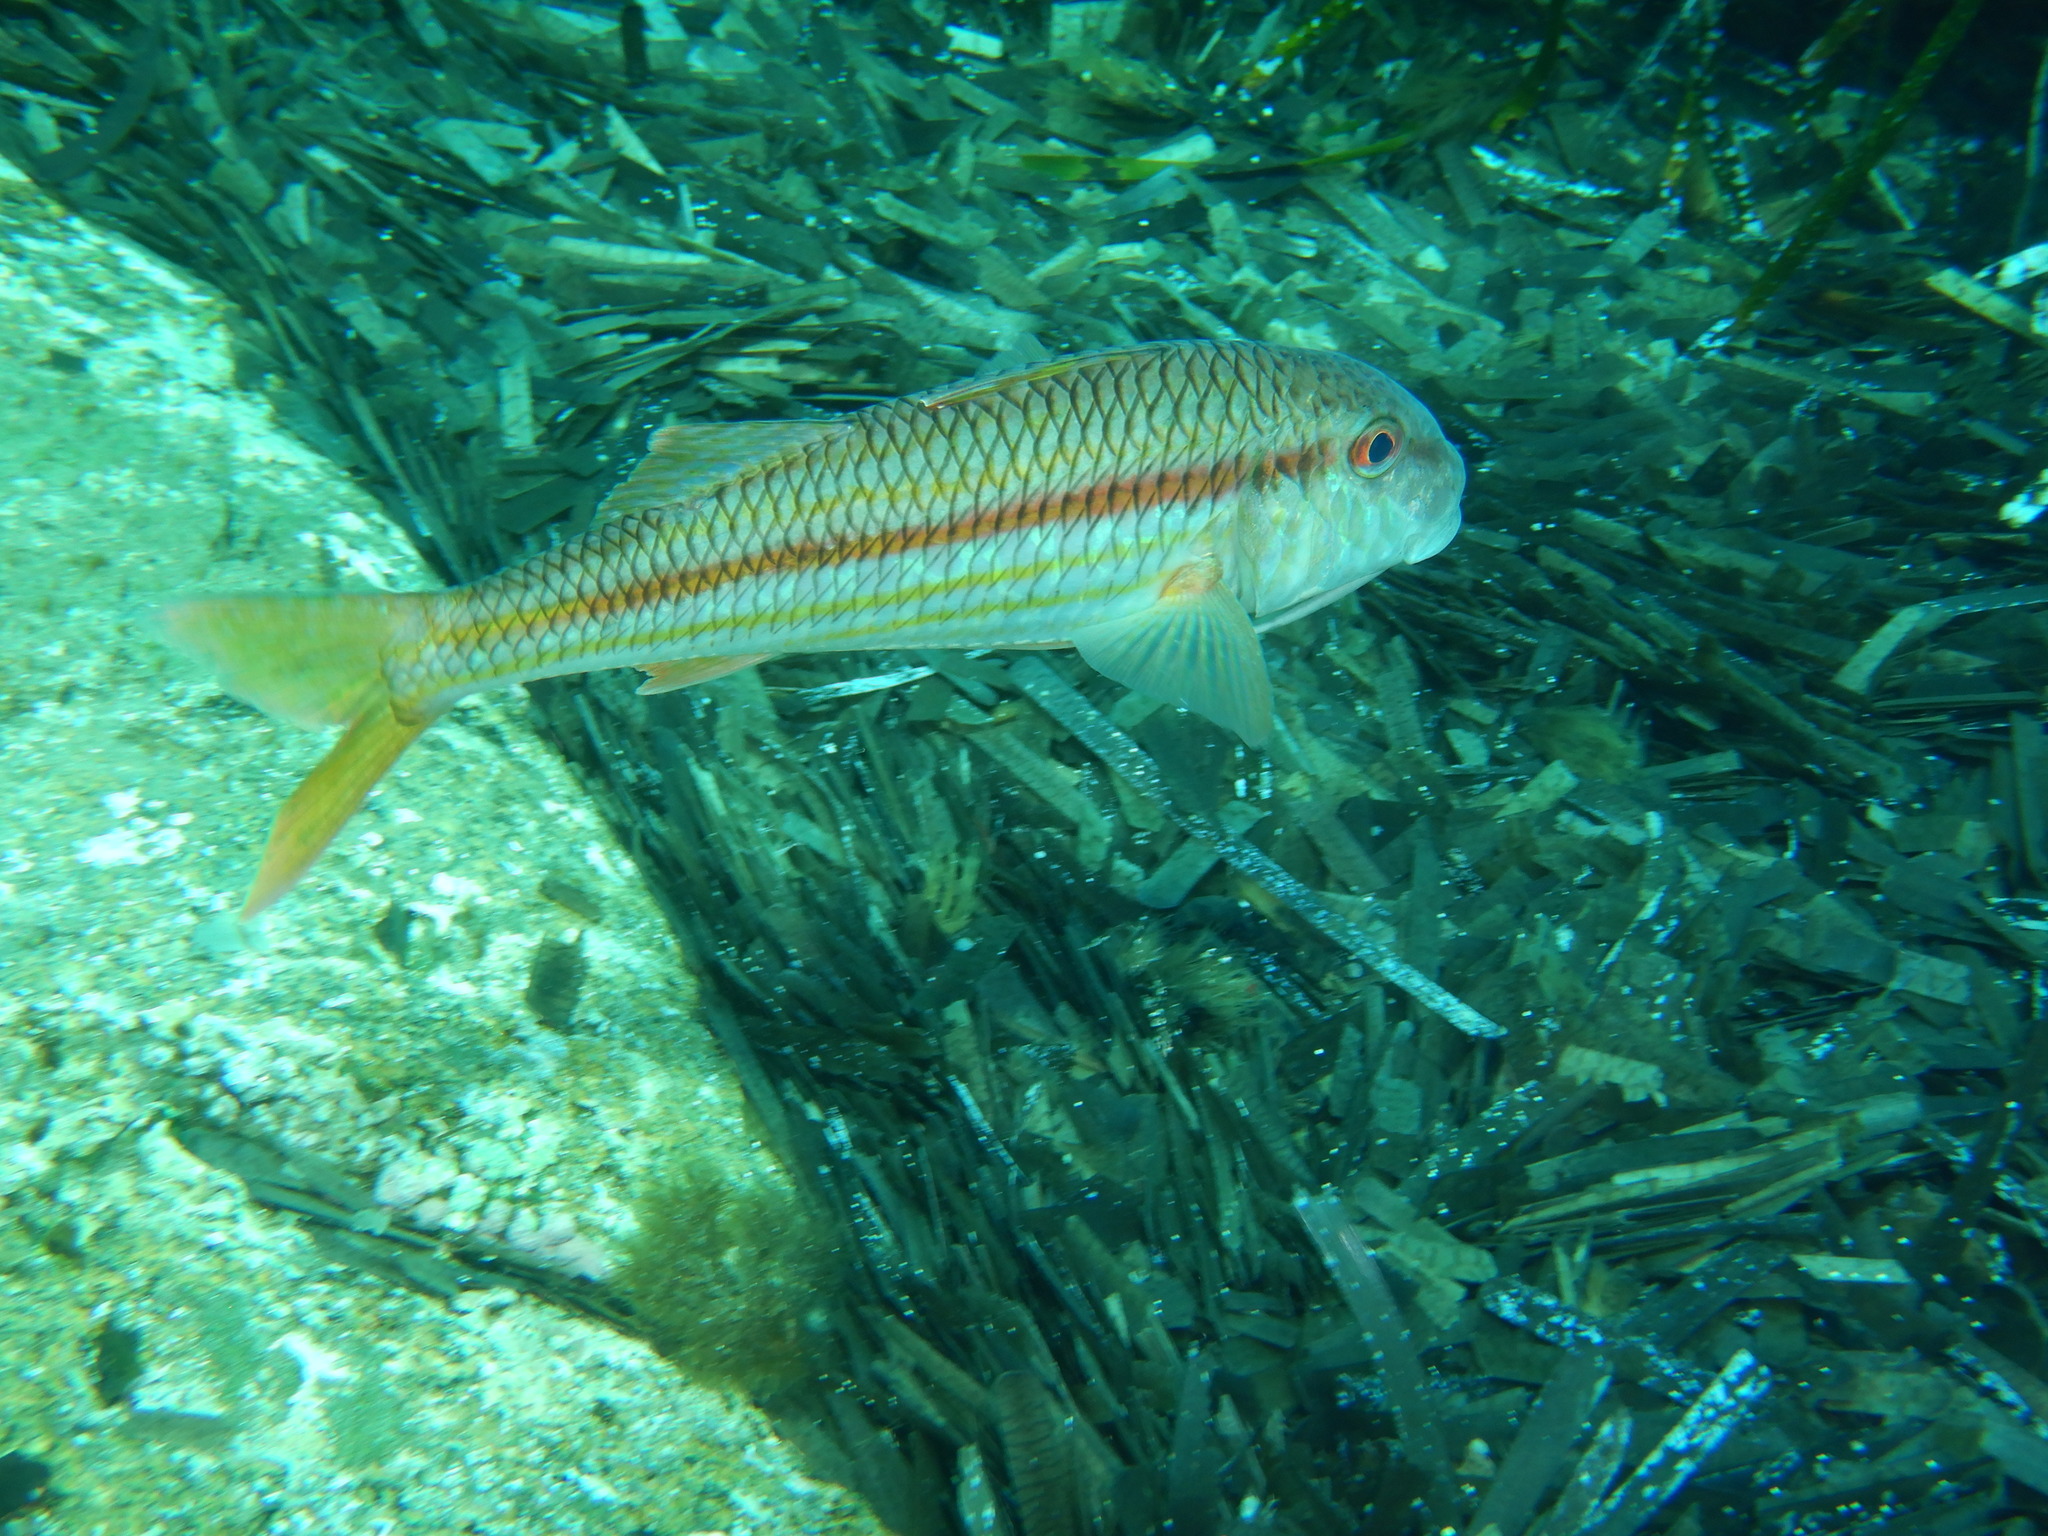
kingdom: Animalia
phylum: Chordata
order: Perciformes
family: Mullidae
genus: Mullus
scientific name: Mullus surmuletus
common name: Red mullet
